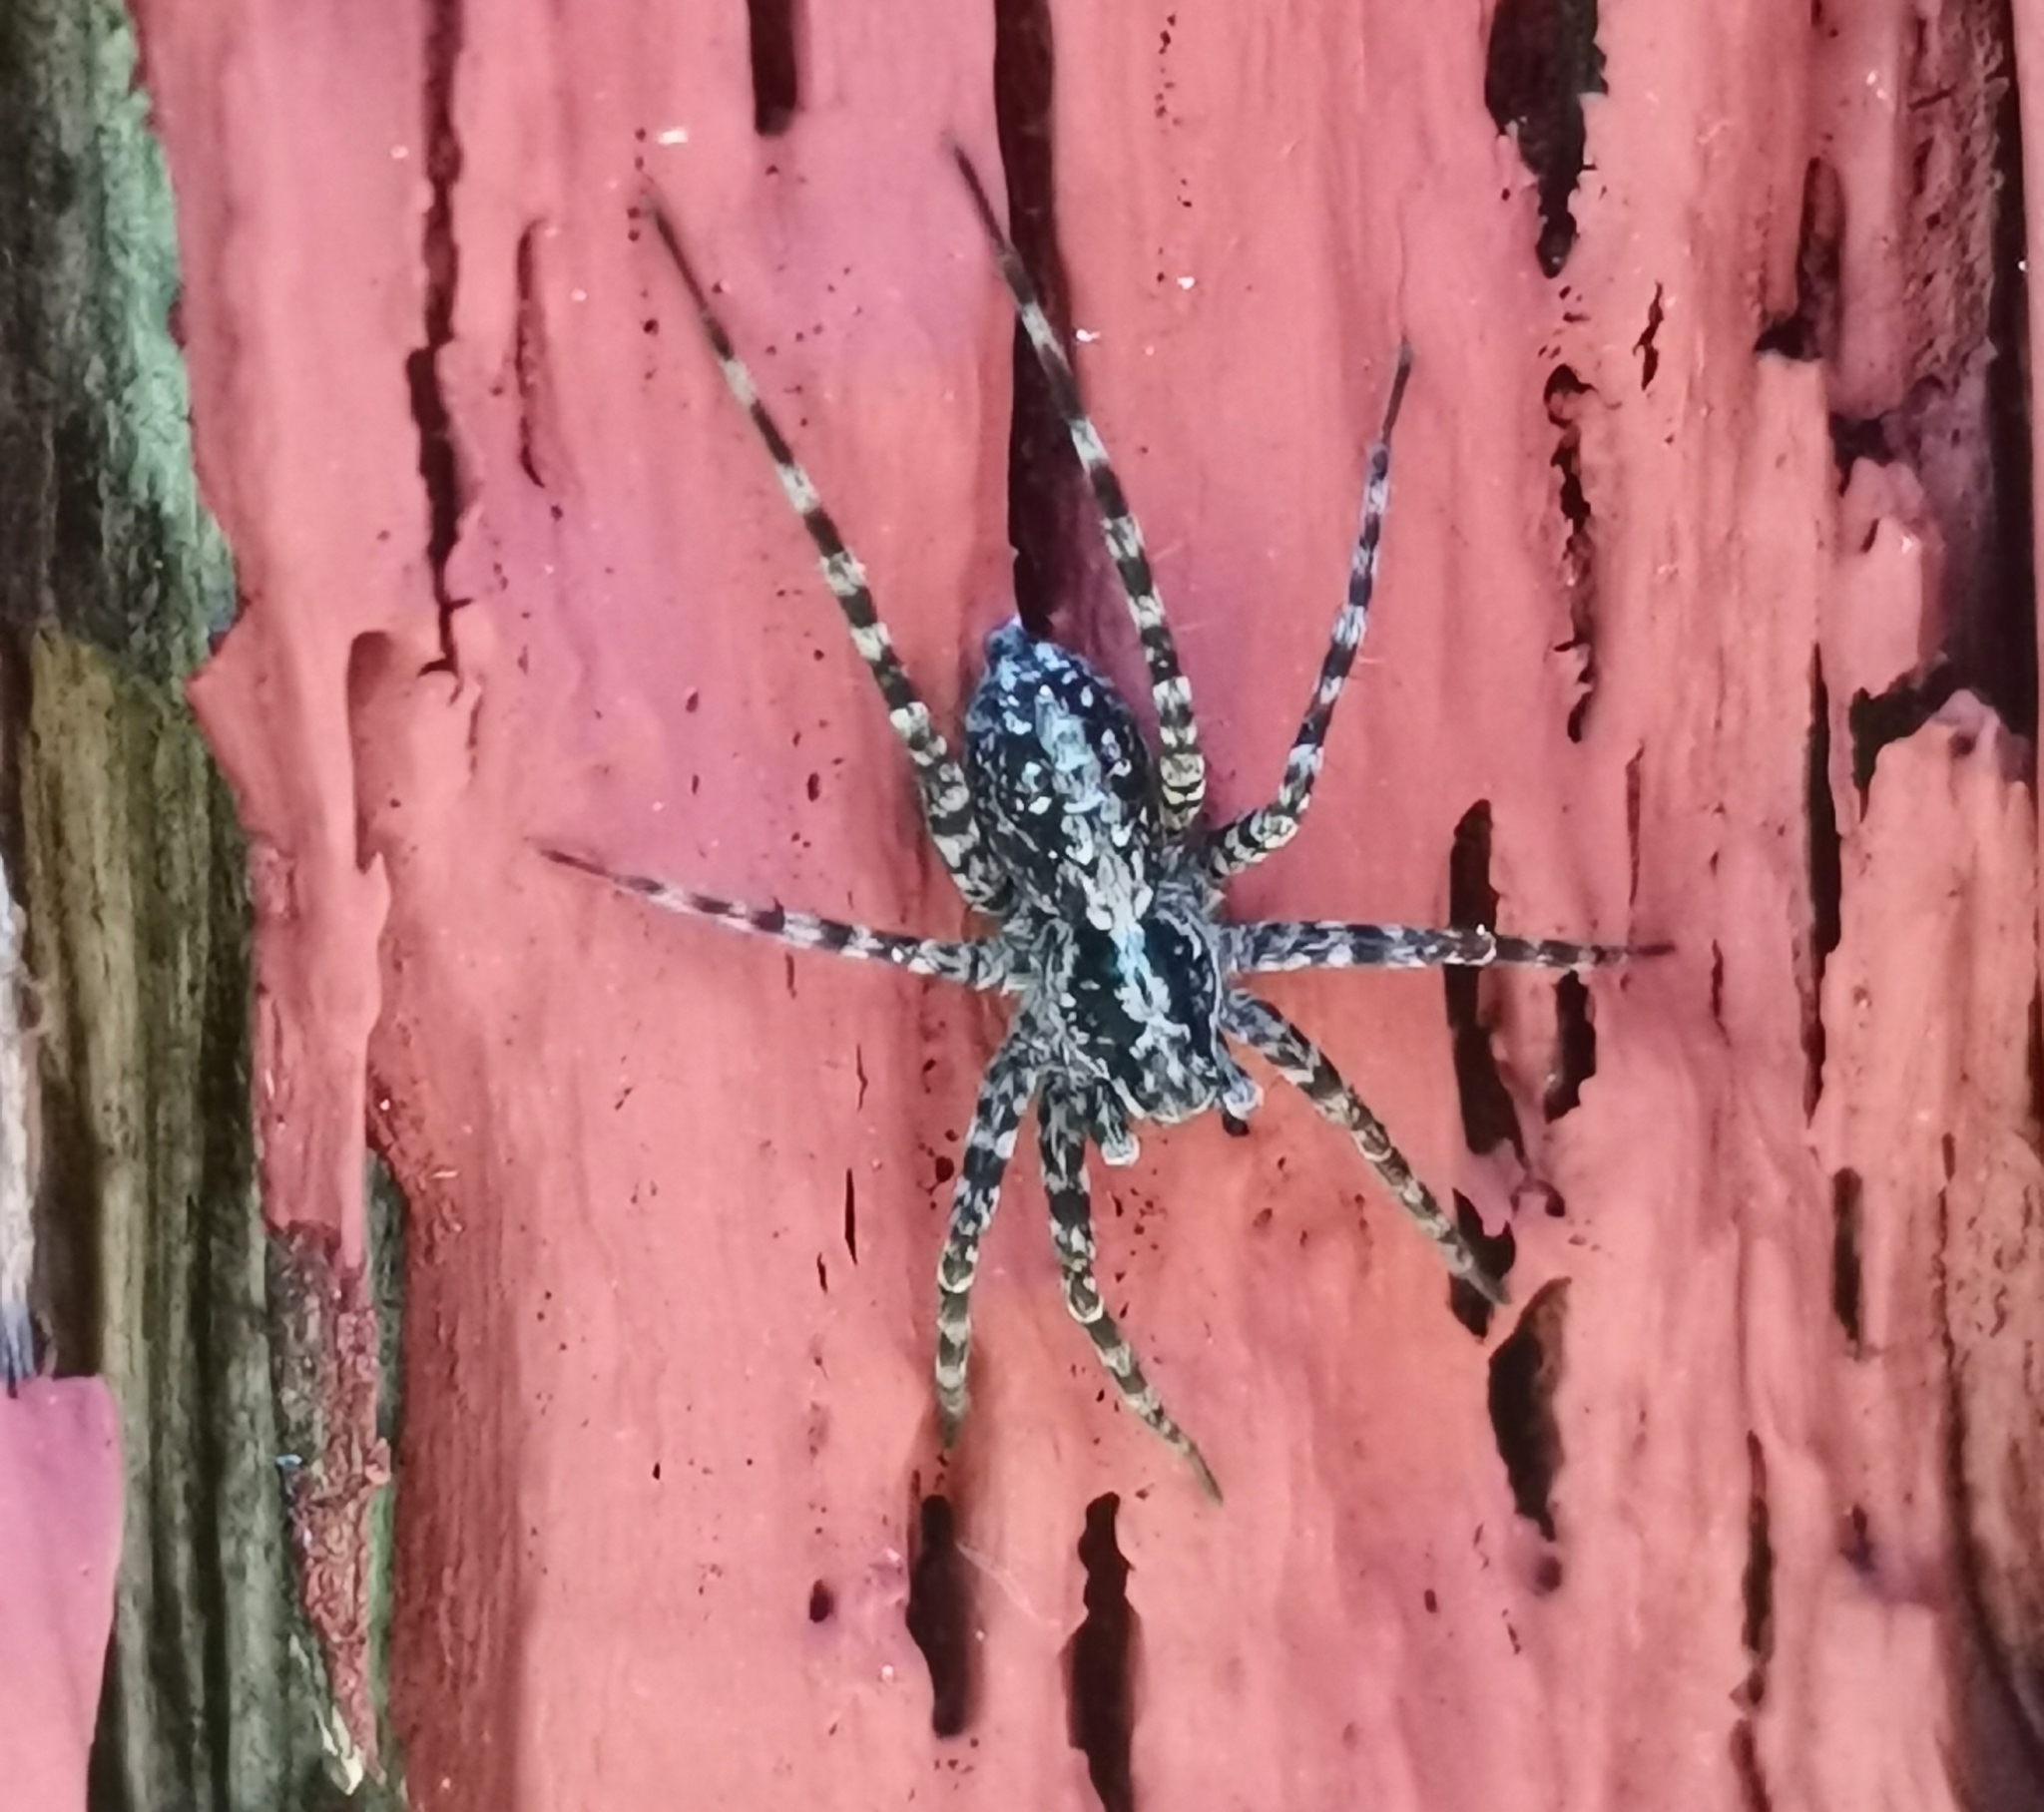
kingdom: Animalia
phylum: Arthropoda
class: Arachnida
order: Araneae
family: Lycosidae
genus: Acantholycosa
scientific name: Acantholycosa lignaria
